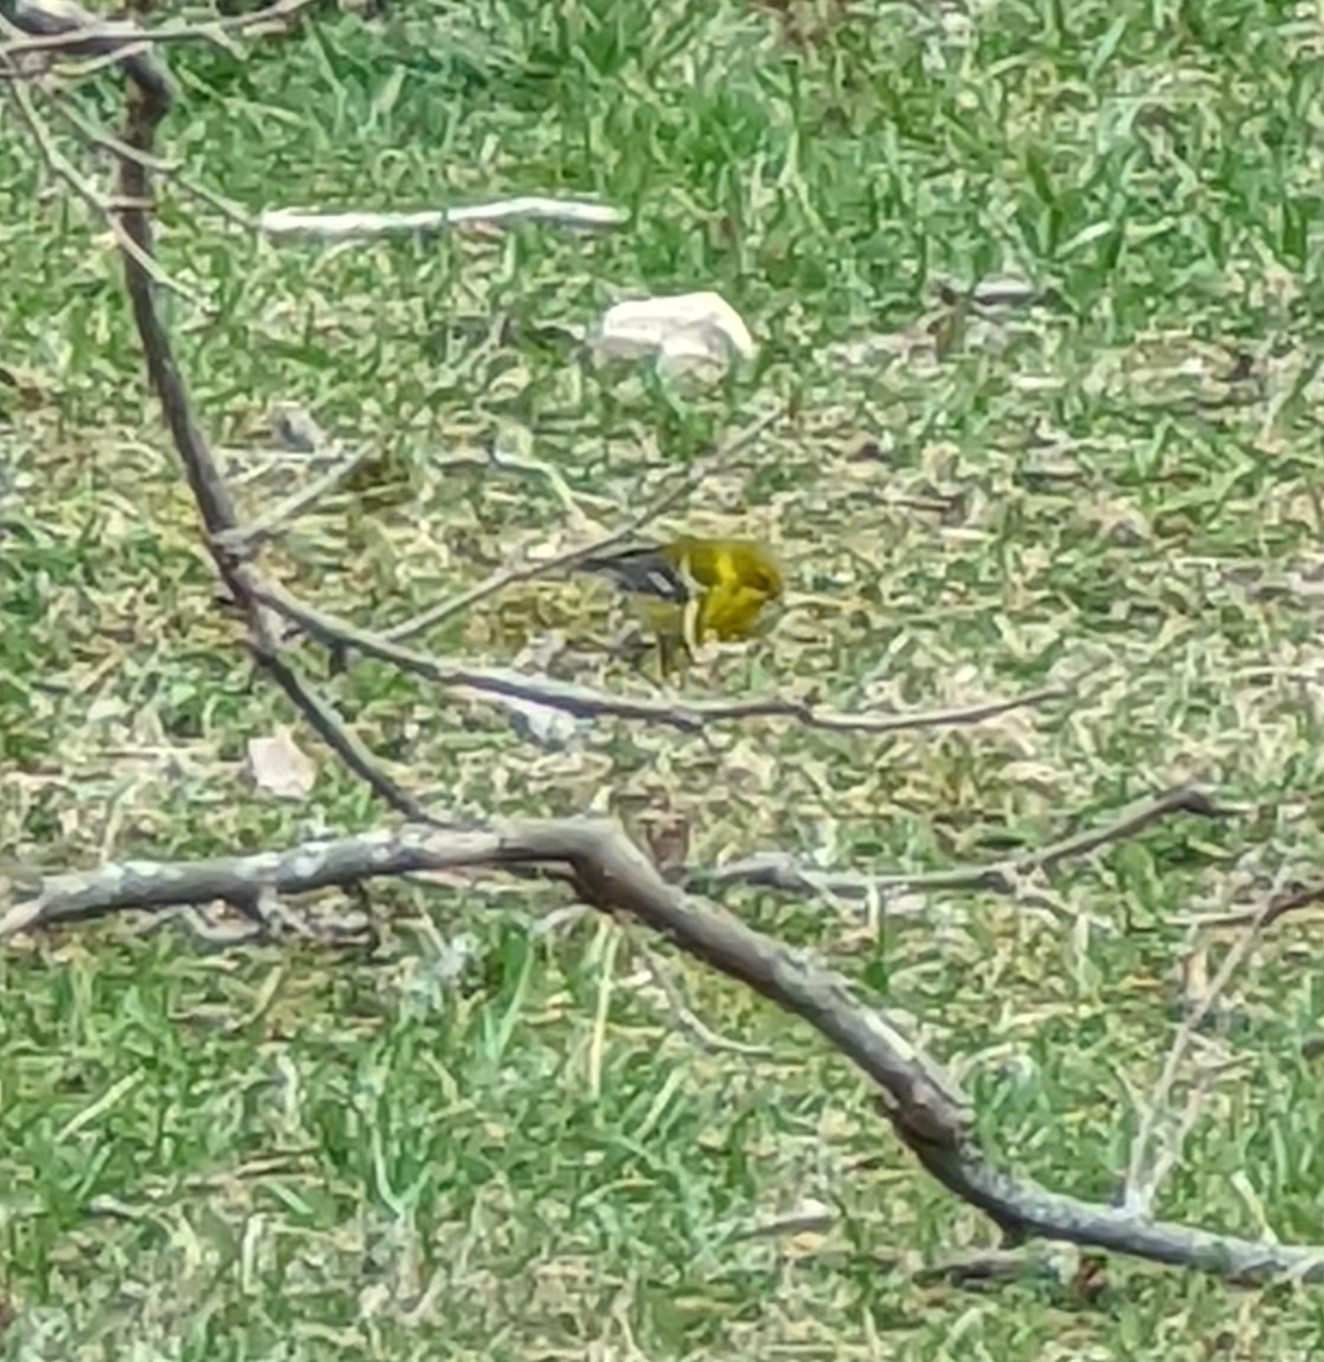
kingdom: Animalia
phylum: Chordata
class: Aves
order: Passeriformes
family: Parulidae
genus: Setophaga
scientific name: Setophaga pinus
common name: Pine warbler
